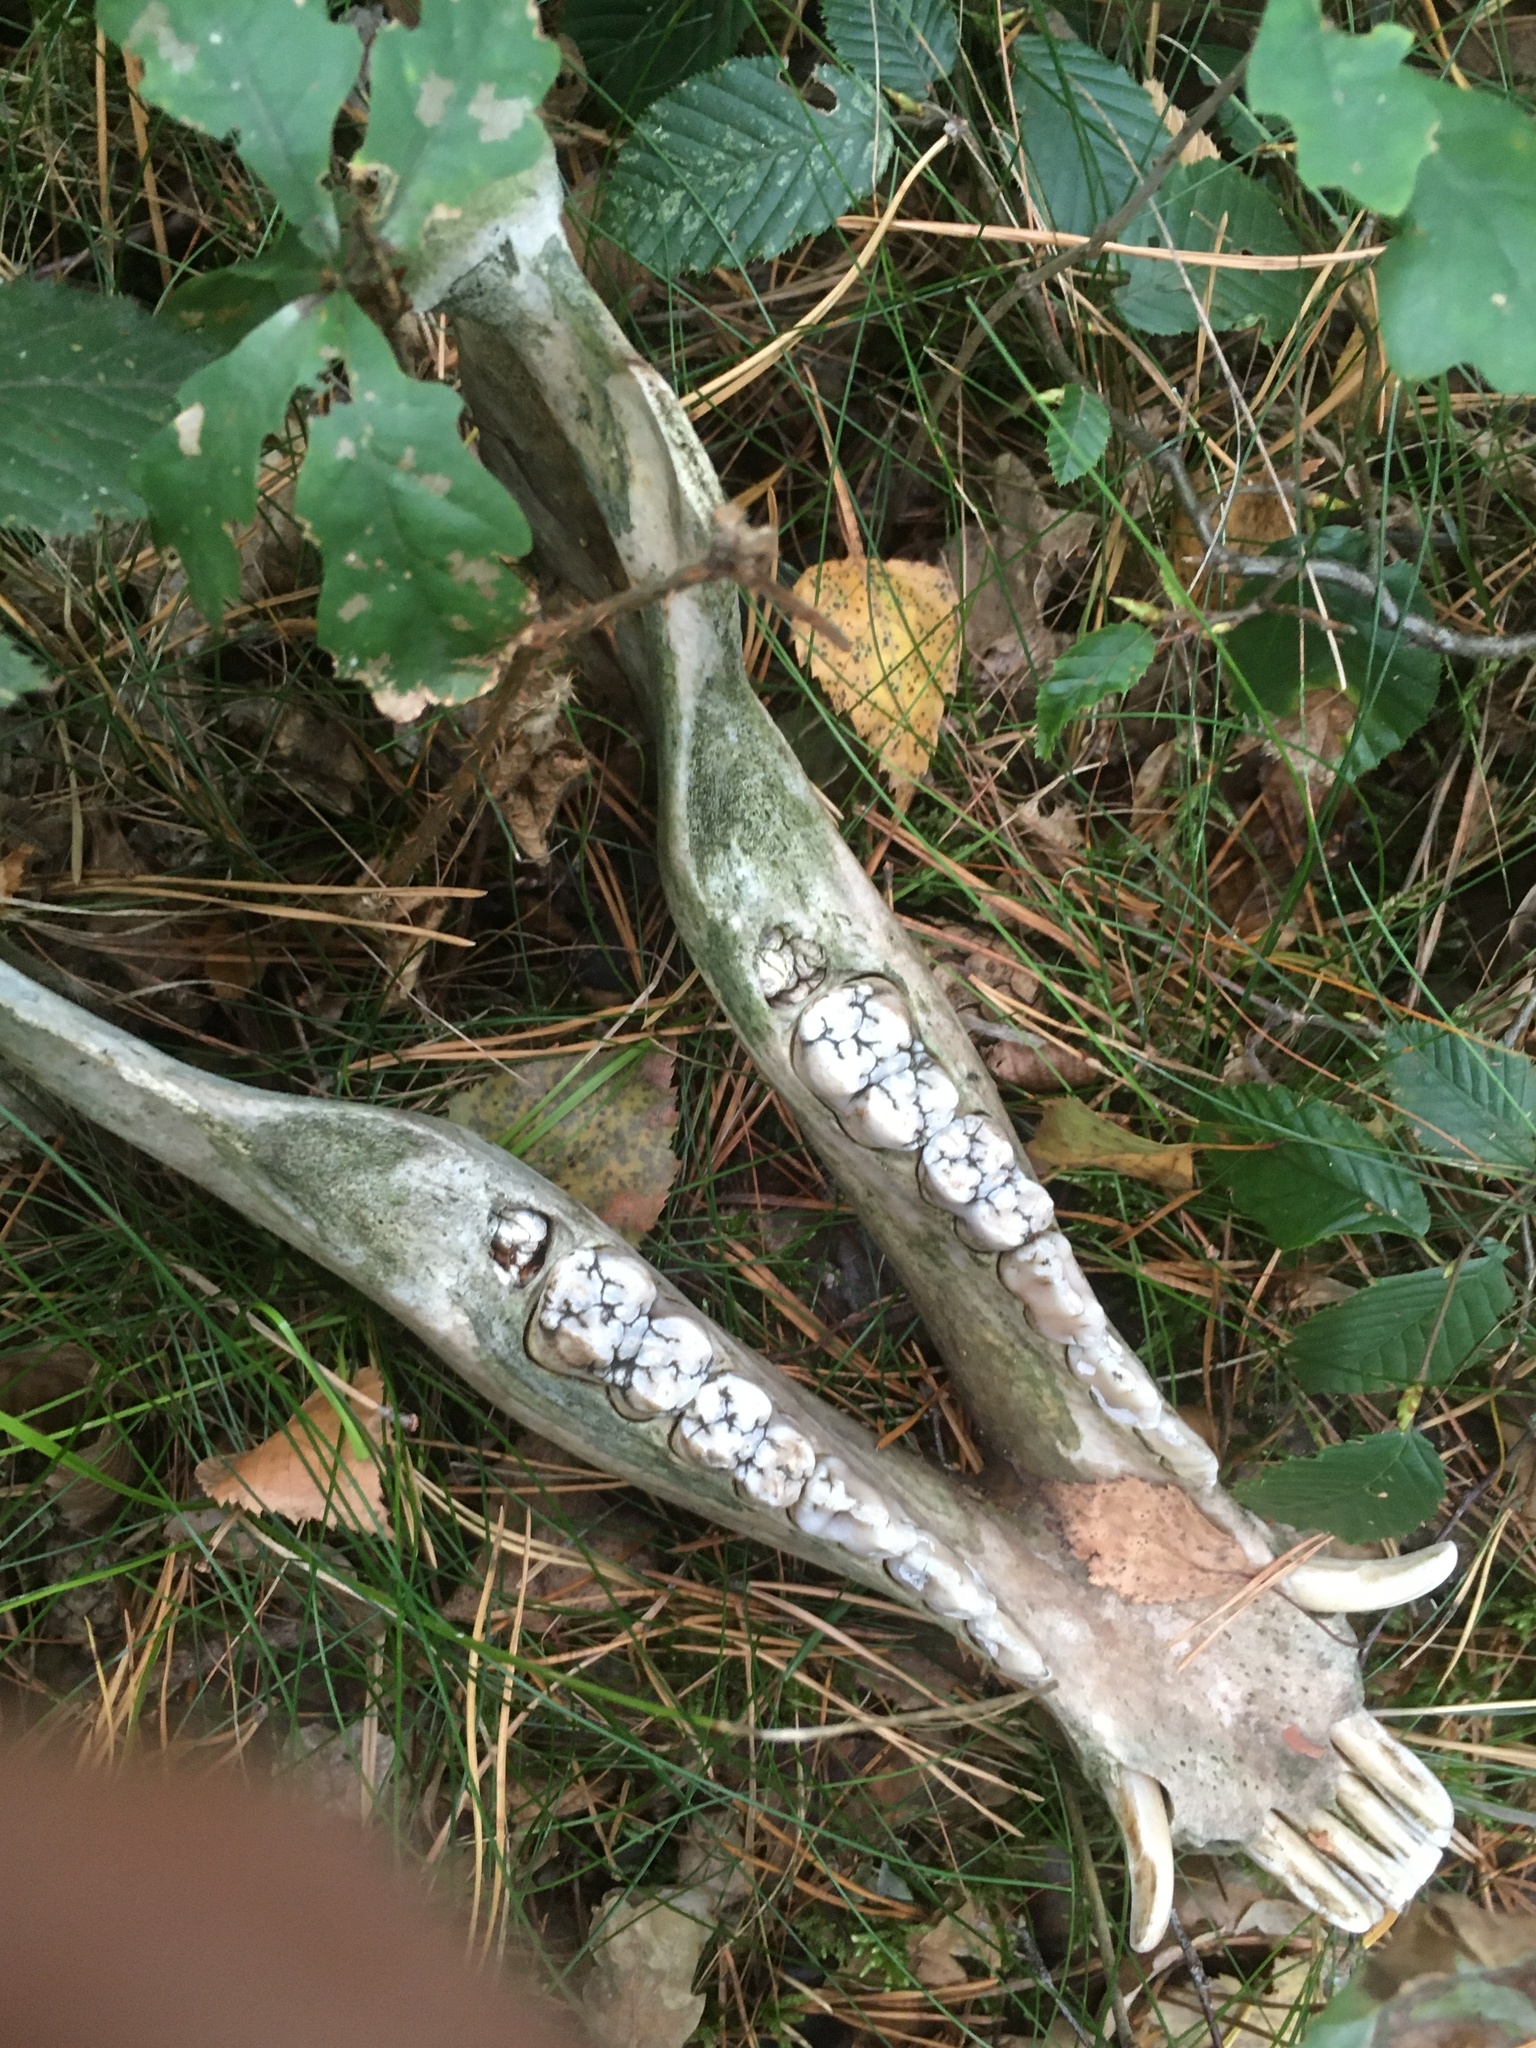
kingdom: Animalia
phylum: Chordata
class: Mammalia
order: Artiodactyla
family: Suidae
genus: Sus
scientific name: Sus scrofa
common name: Wild boar
